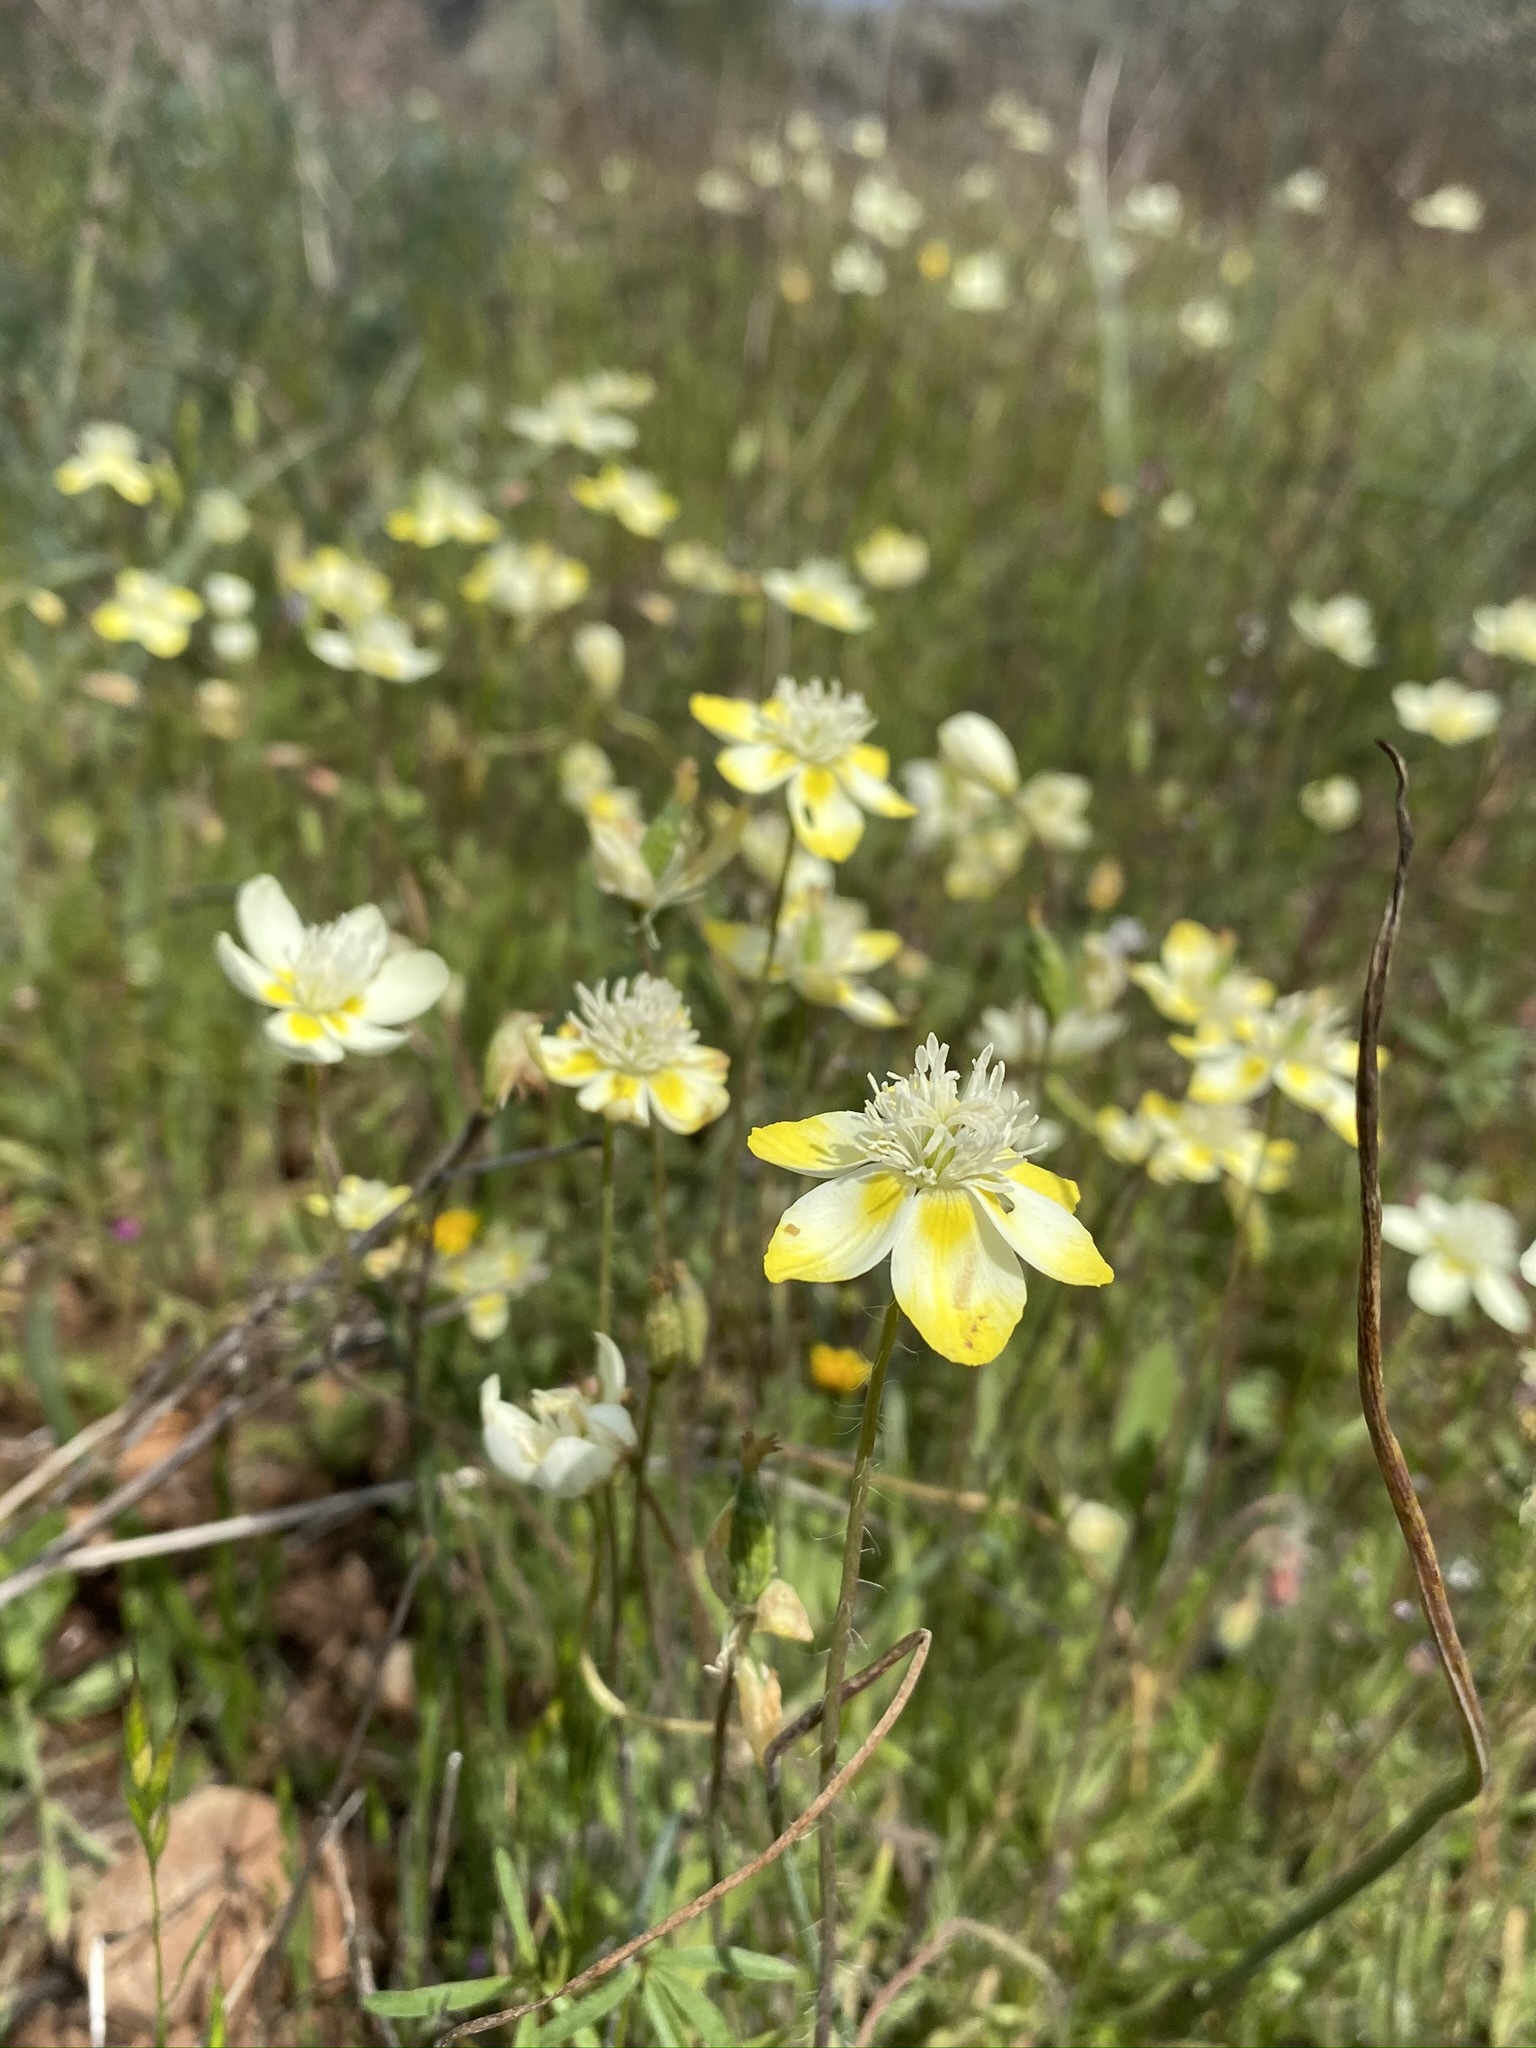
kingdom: Plantae
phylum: Tracheophyta
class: Magnoliopsida
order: Ranunculales
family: Papaveraceae
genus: Platystemon
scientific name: Platystemon californicus
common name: Cream-cups
